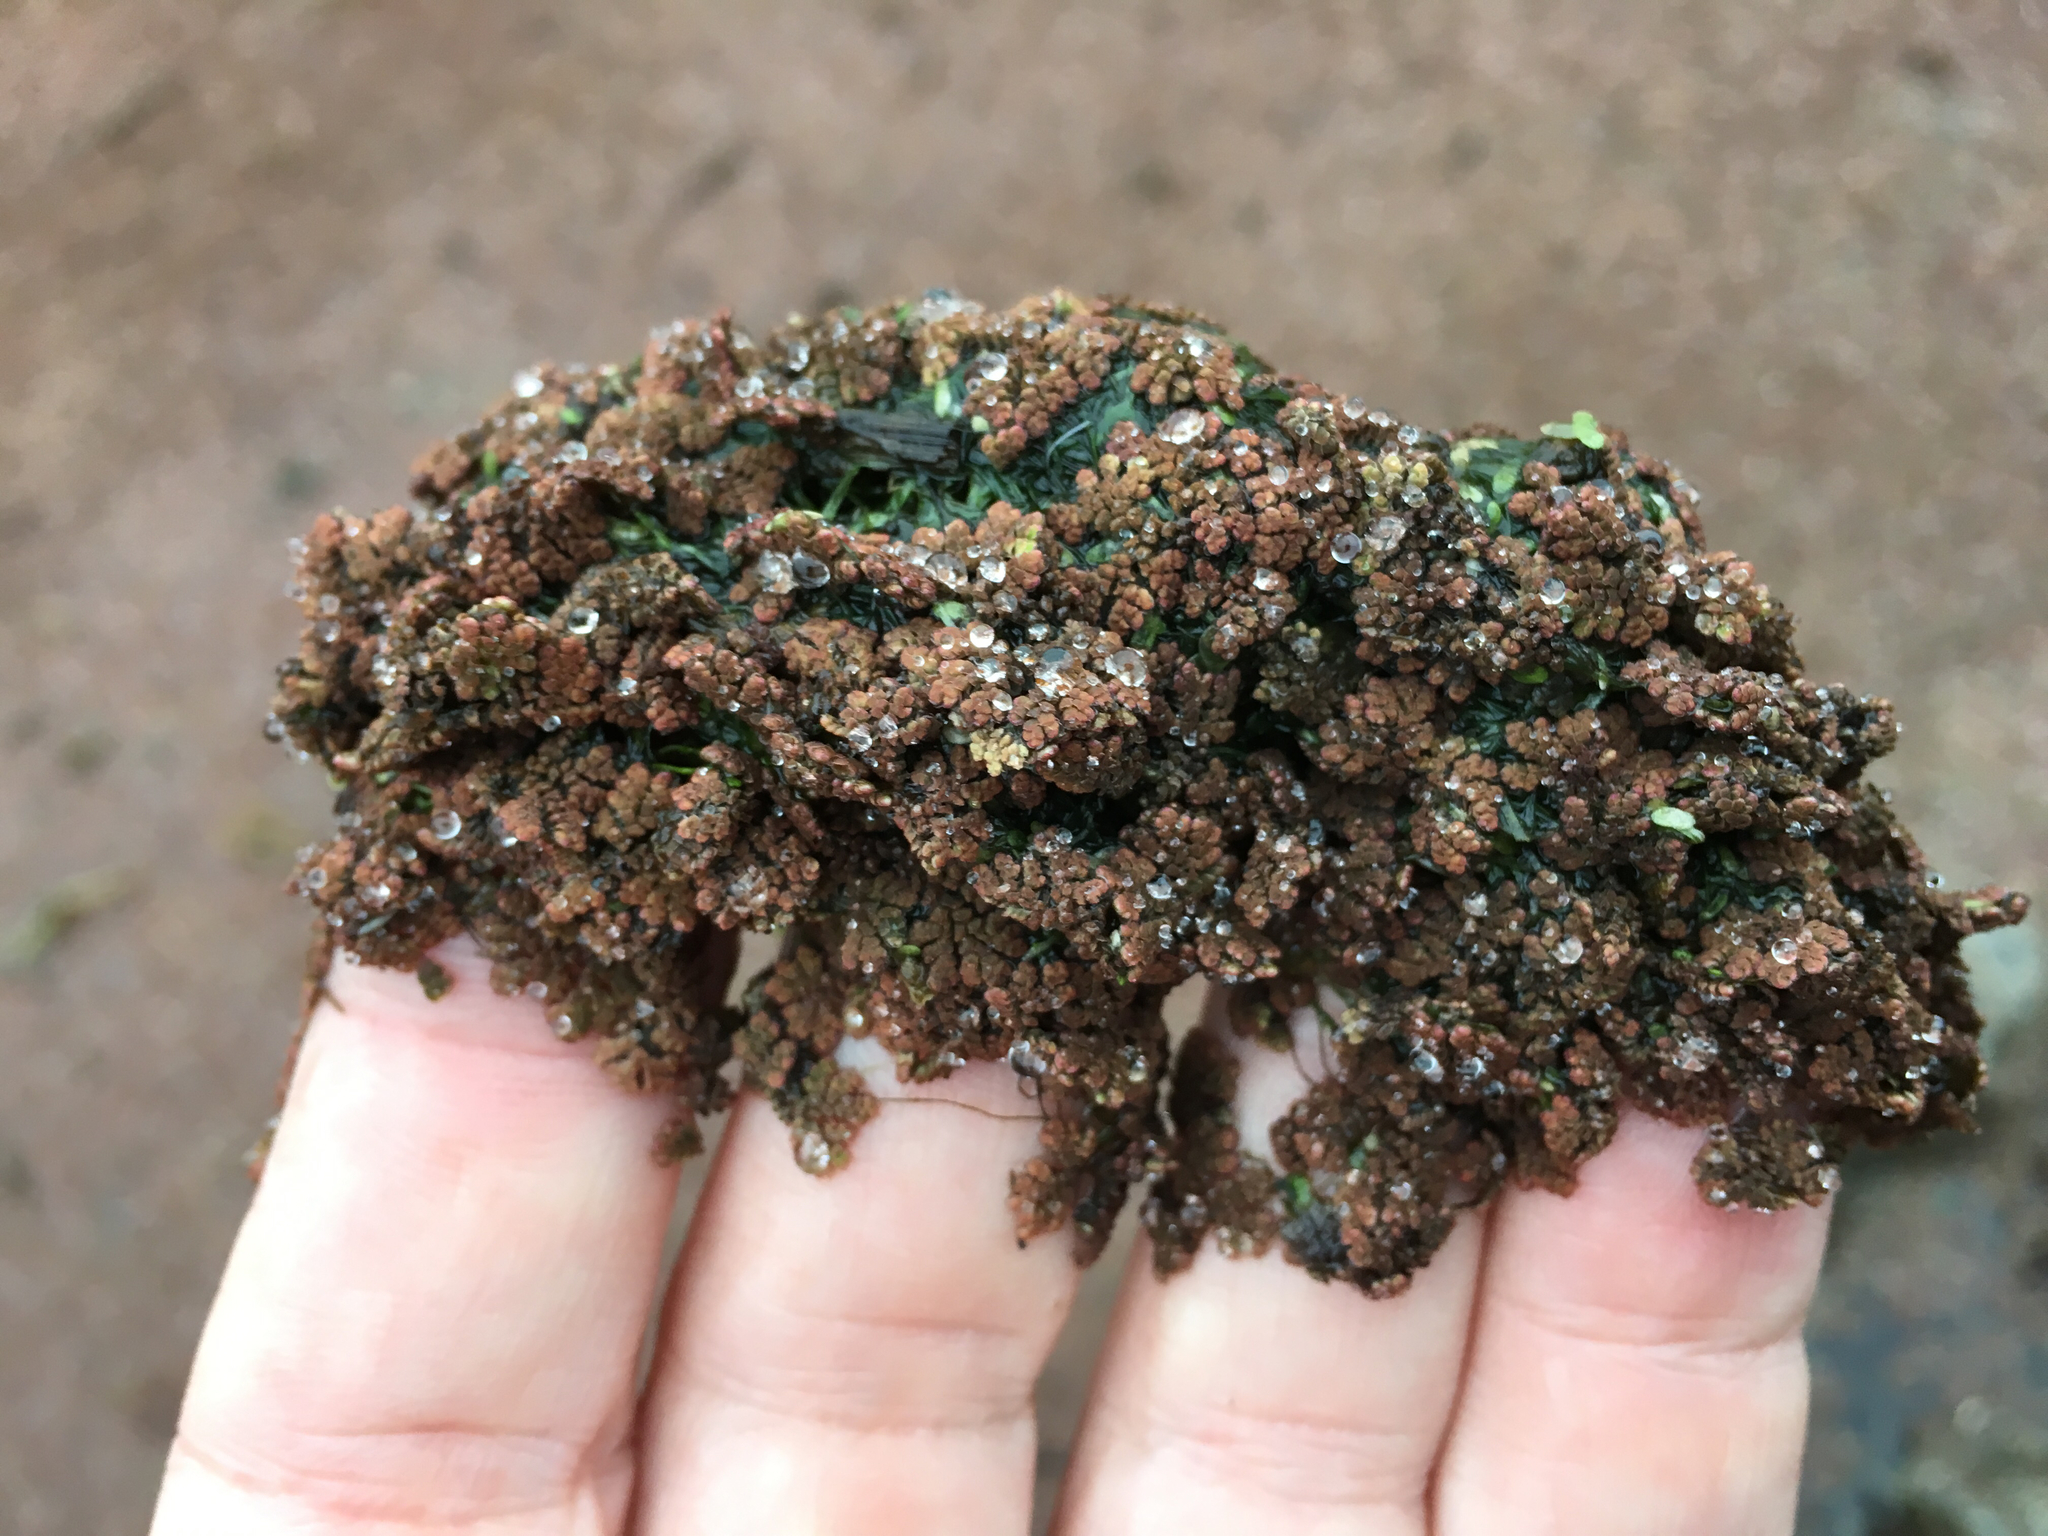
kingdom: Plantae
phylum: Tracheophyta
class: Polypodiopsida
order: Salviniales
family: Salviniaceae
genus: Azolla
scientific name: Azolla caroliniana
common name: Carolina mosquitofern
